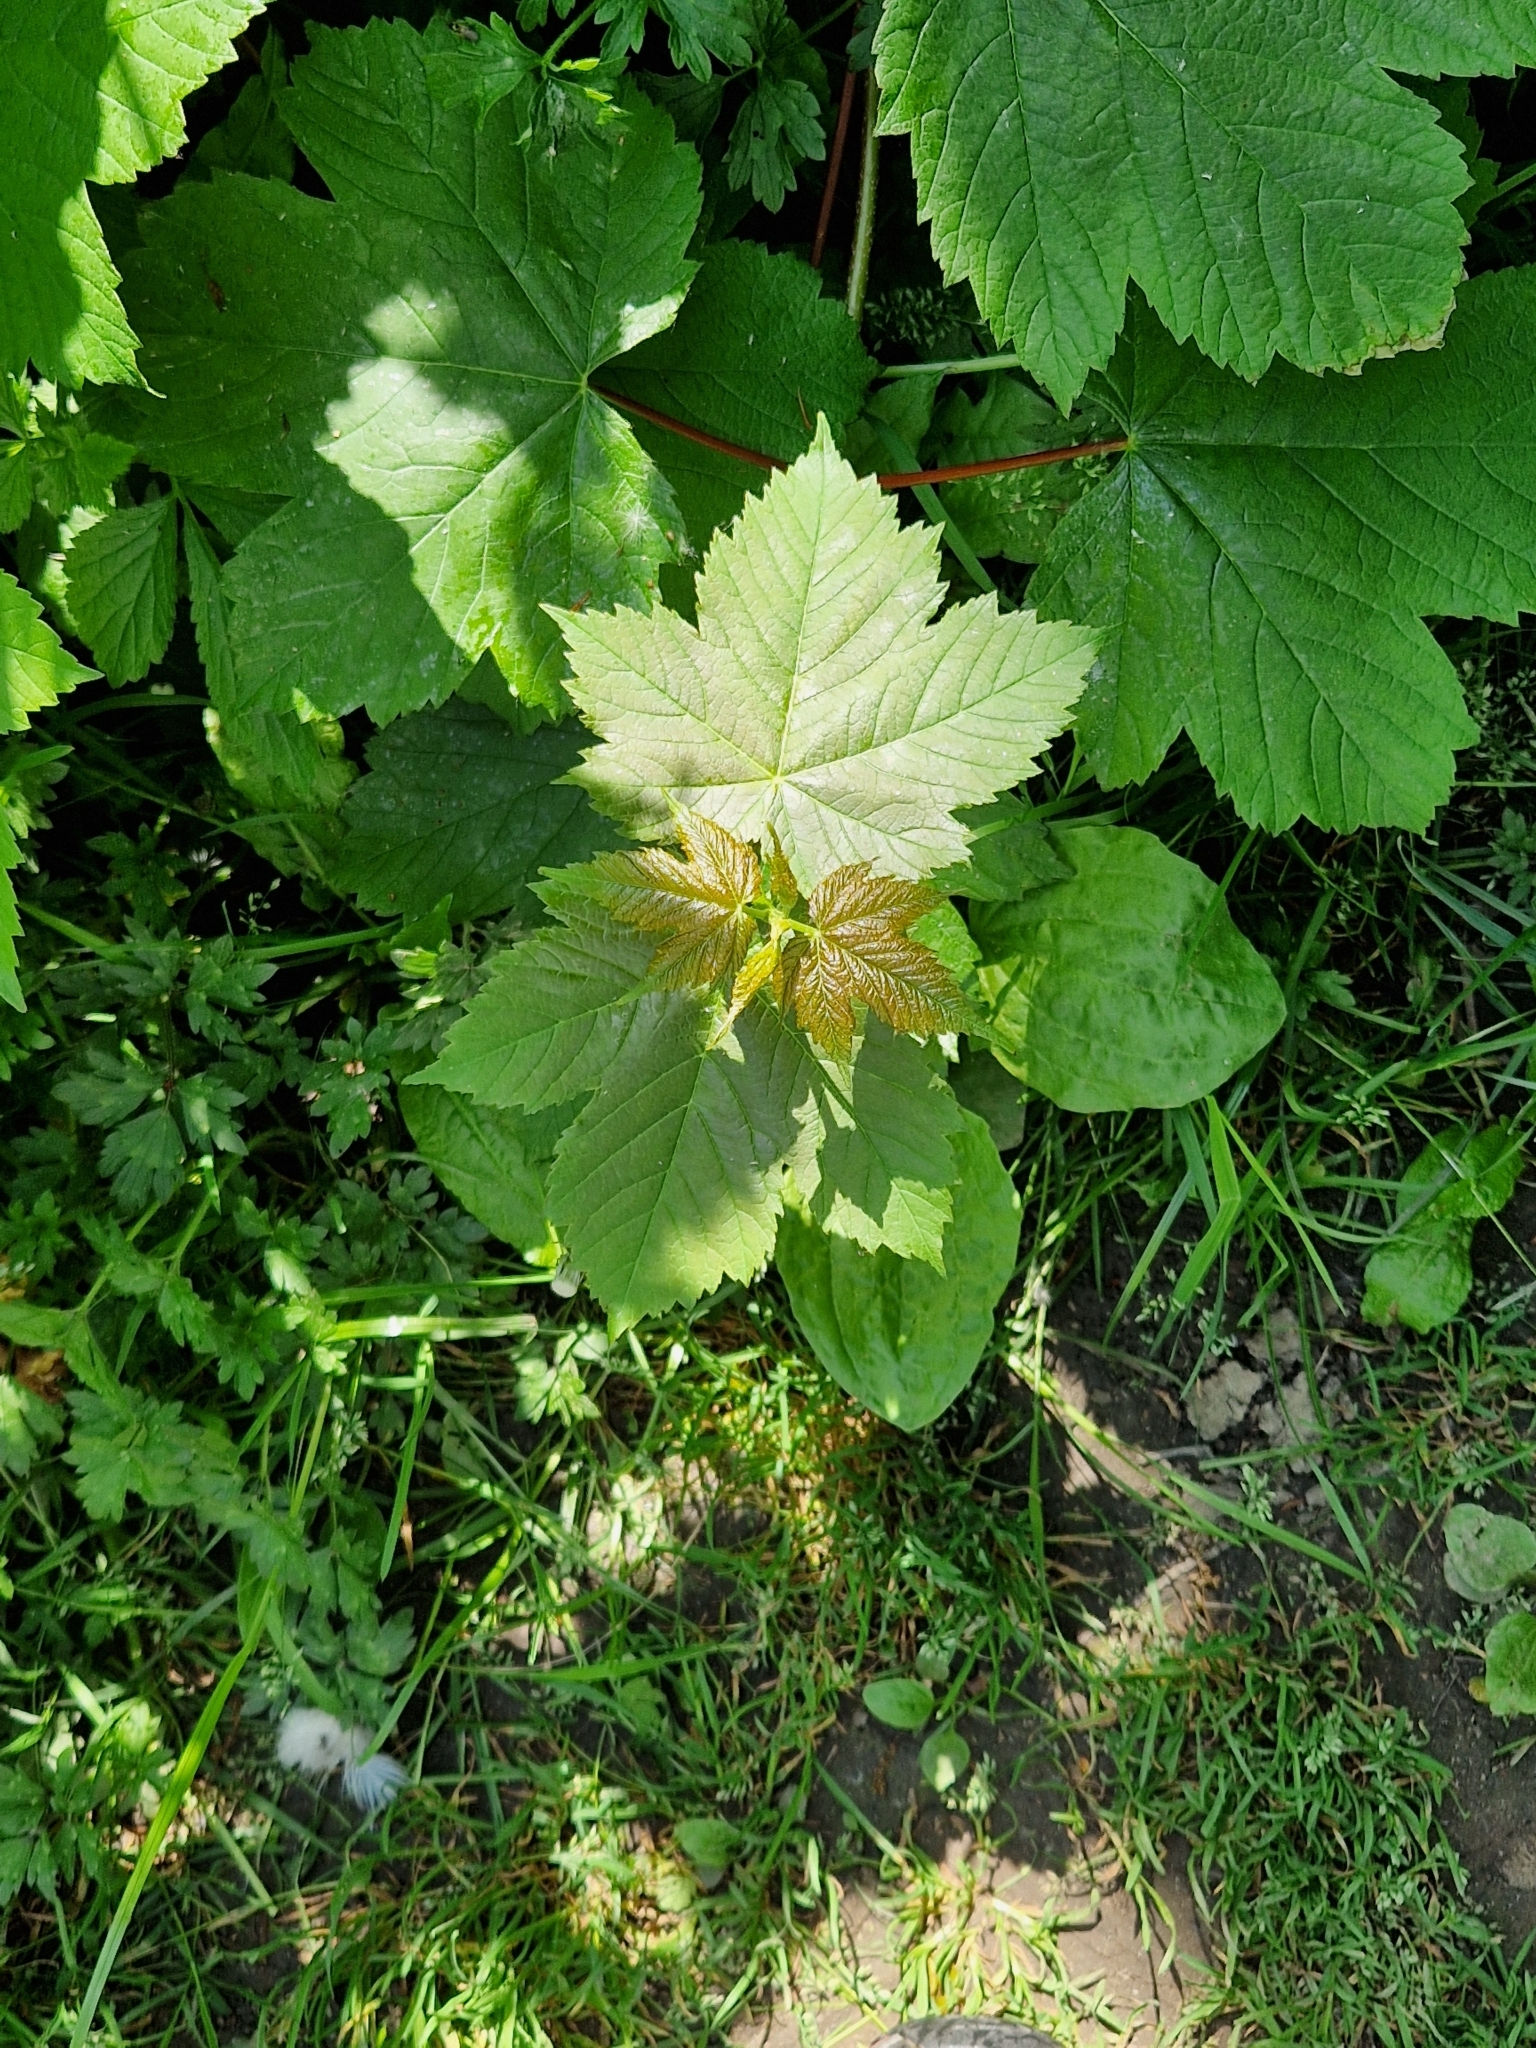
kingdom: Plantae
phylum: Tracheophyta
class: Magnoliopsida
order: Sapindales
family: Sapindaceae
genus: Acer
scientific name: Acer pseudoplatanus
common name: Sycamore
